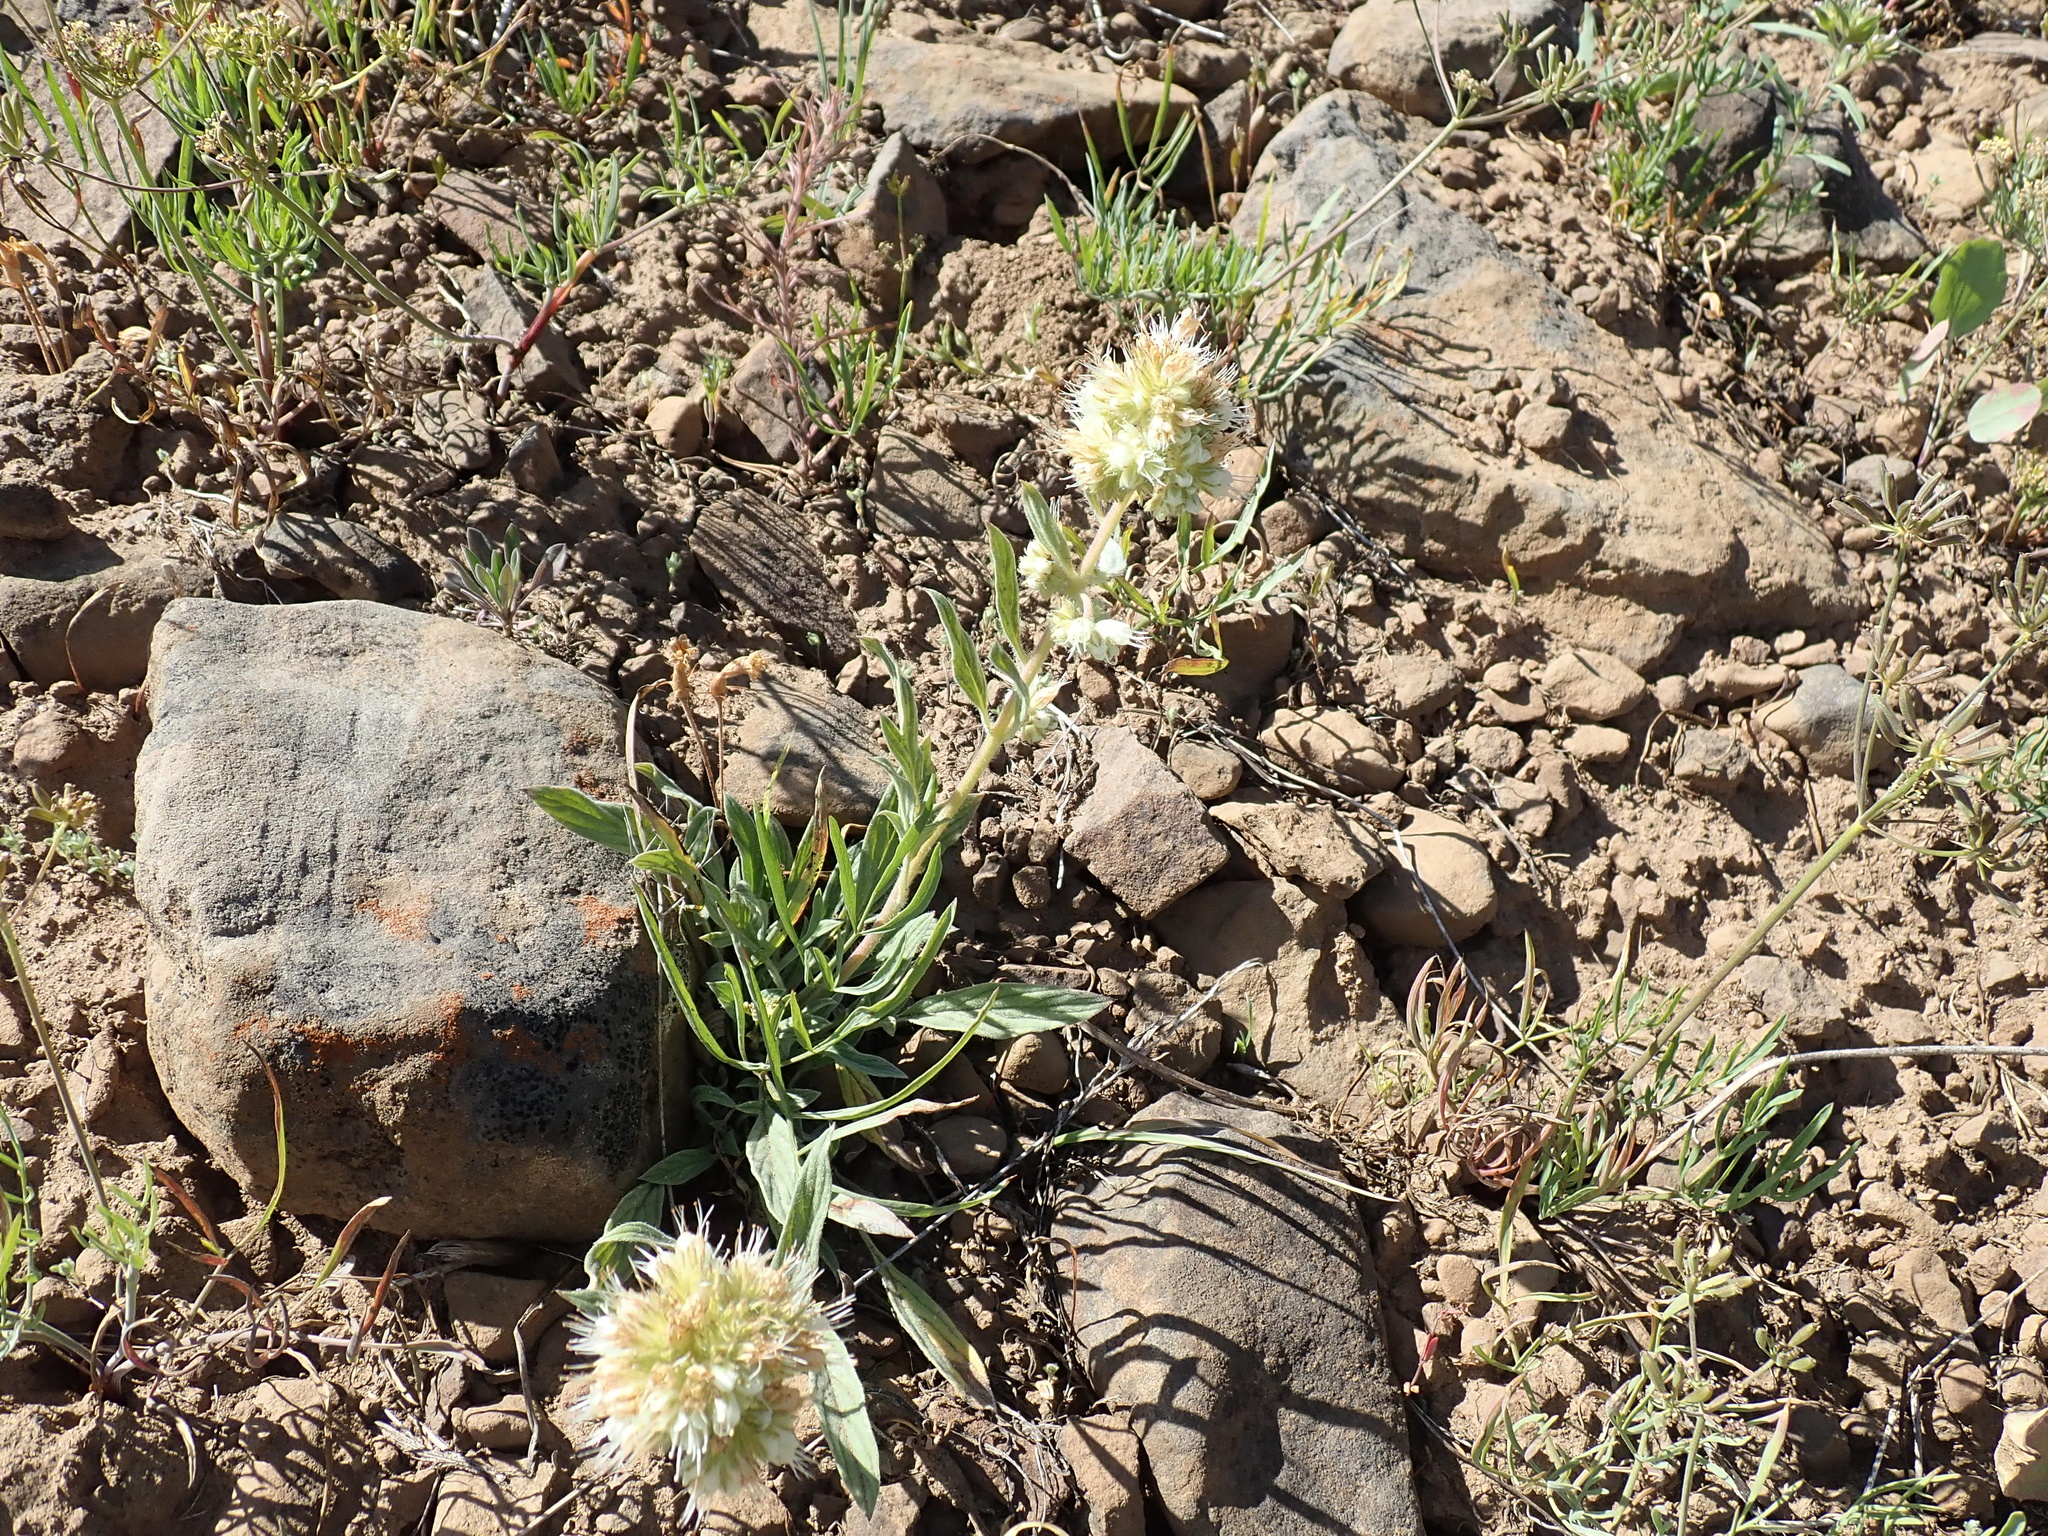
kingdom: Plantae
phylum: Tracheophyta
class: Magnoliopsida
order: Boraginales
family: Hydrophyllaceae
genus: Phacelia
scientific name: Phacelia hastata
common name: Silver-leaved phacelia
